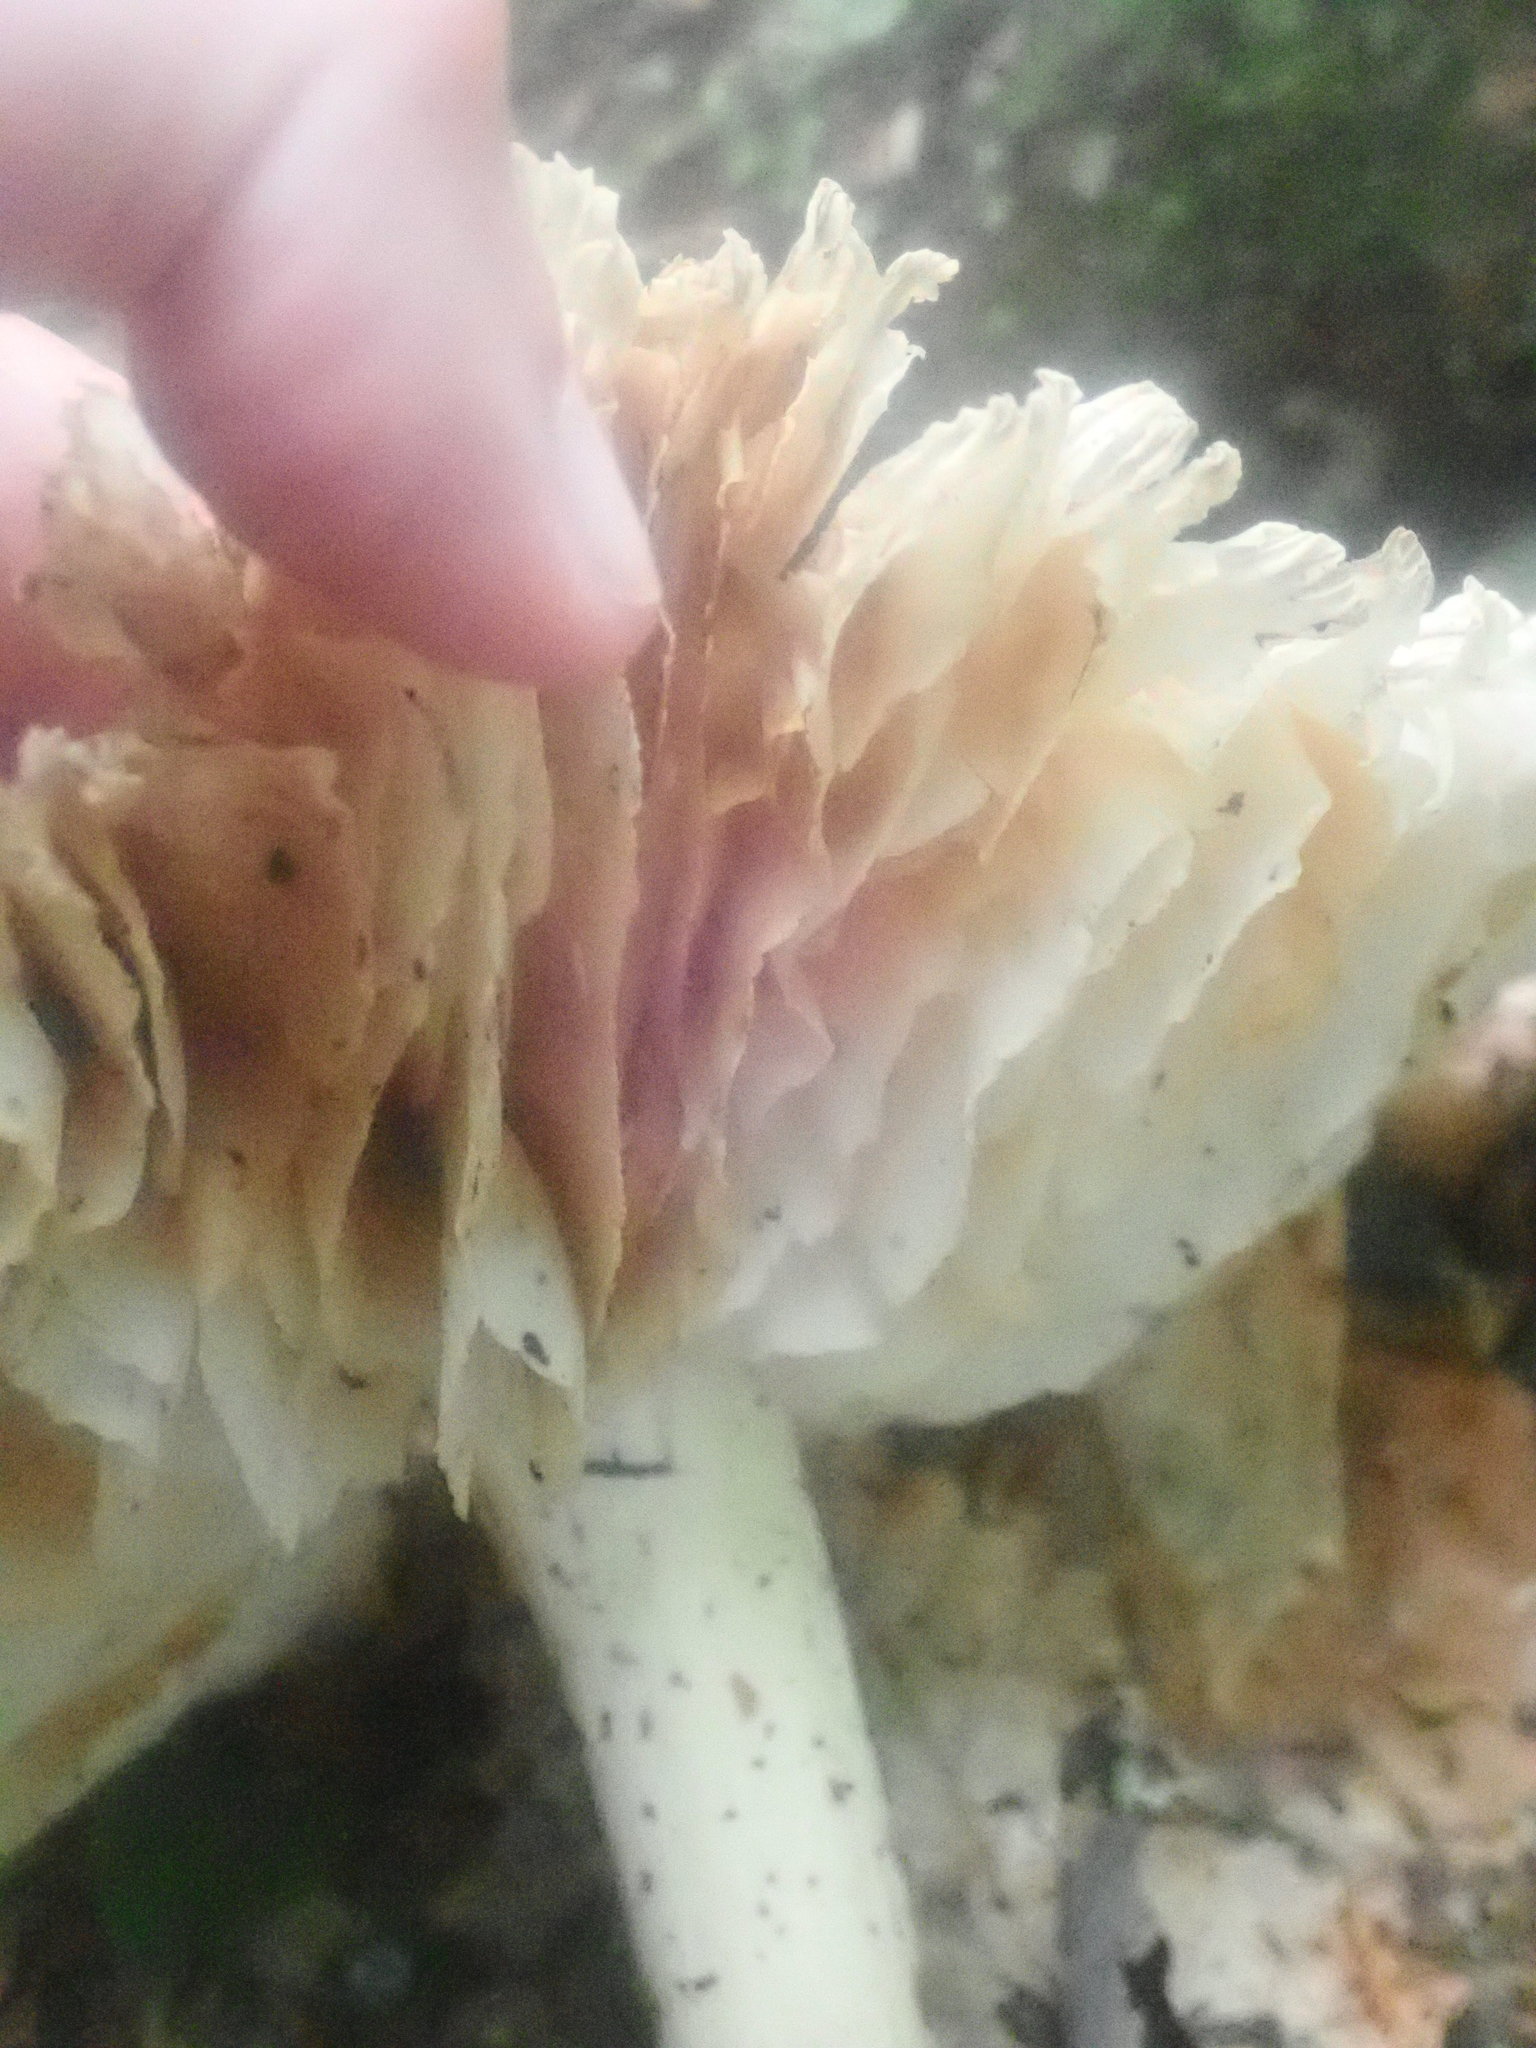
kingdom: Fungi
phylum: Basidiomycota
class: Agaricomycetes
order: Agaricales
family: Tricholomataceae
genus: Megacollybia
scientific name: Megacollybia rodmanii
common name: Eastern american platterful mushroom
